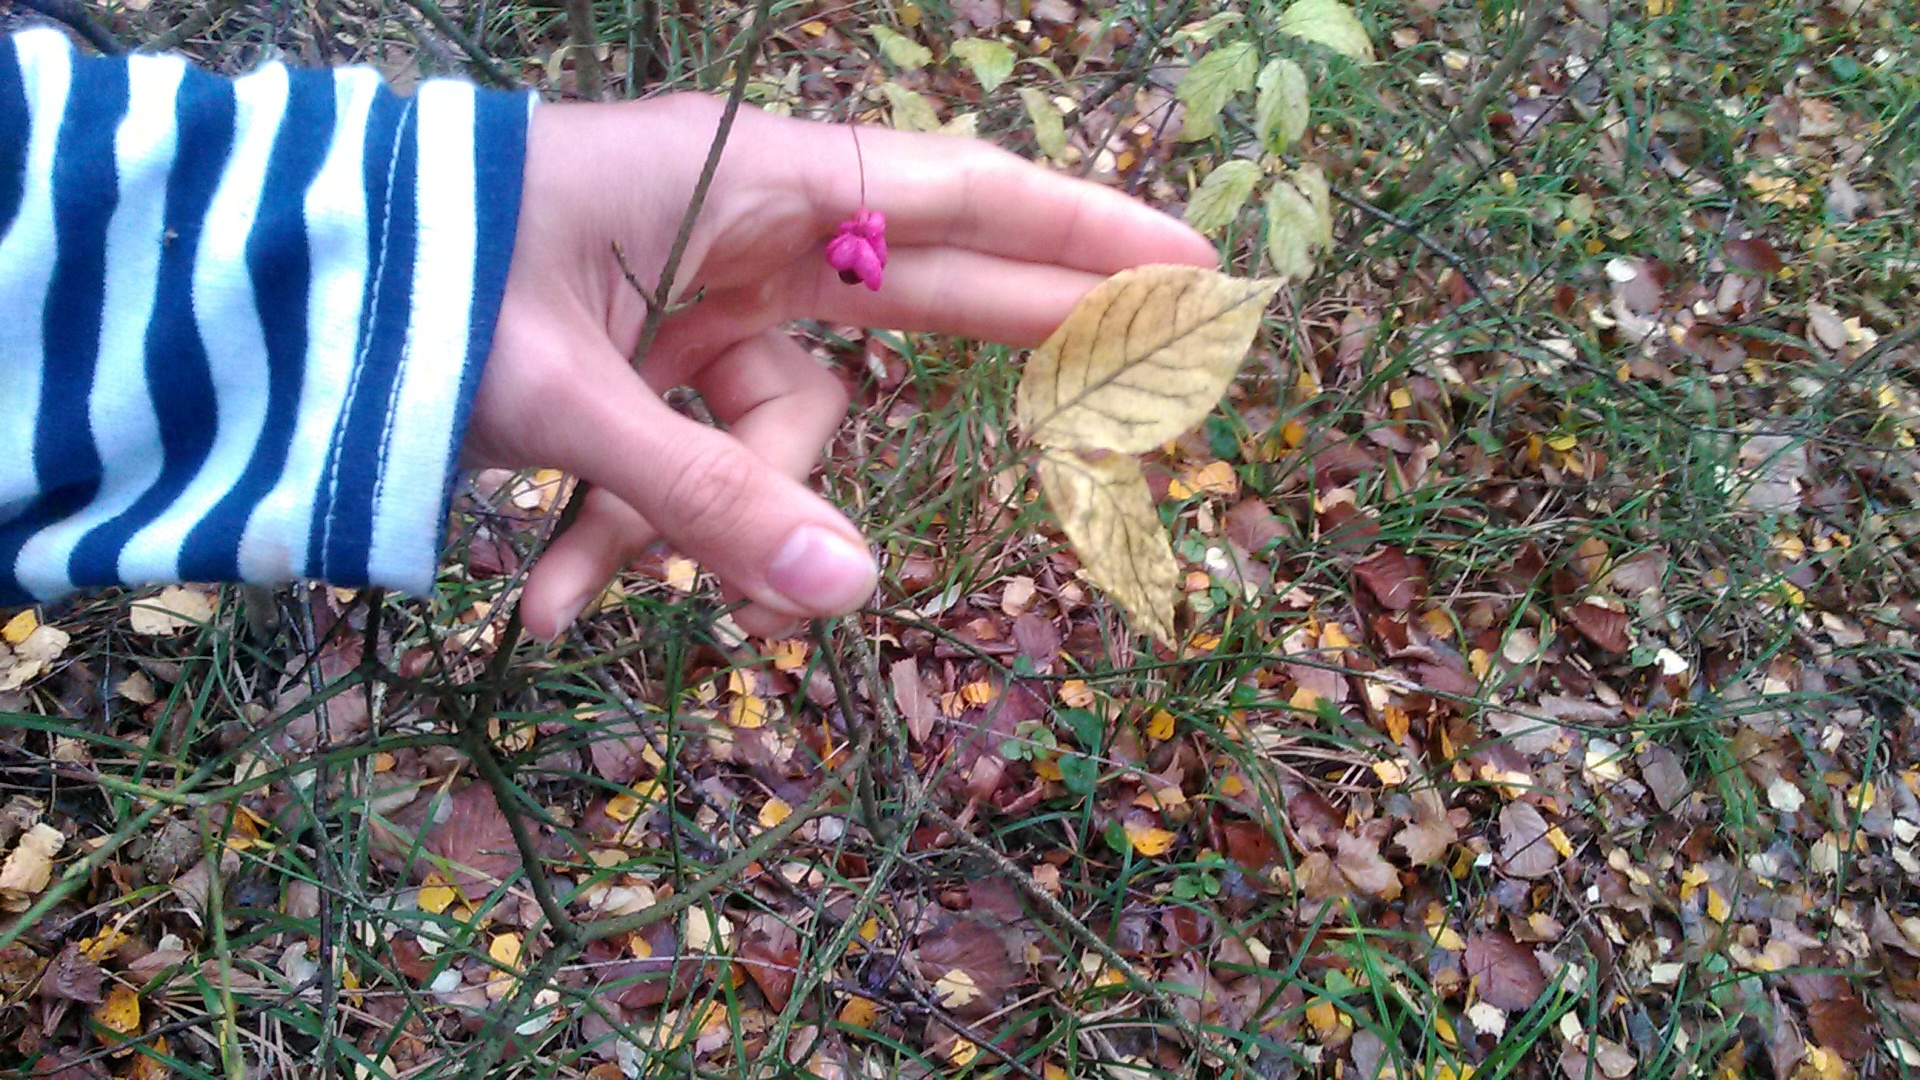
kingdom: Plantae
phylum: Tracheophyta
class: Magnoliopsida
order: Celastrales
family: Celastraceae
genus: Euonymus
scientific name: Euonymus verrucosus
